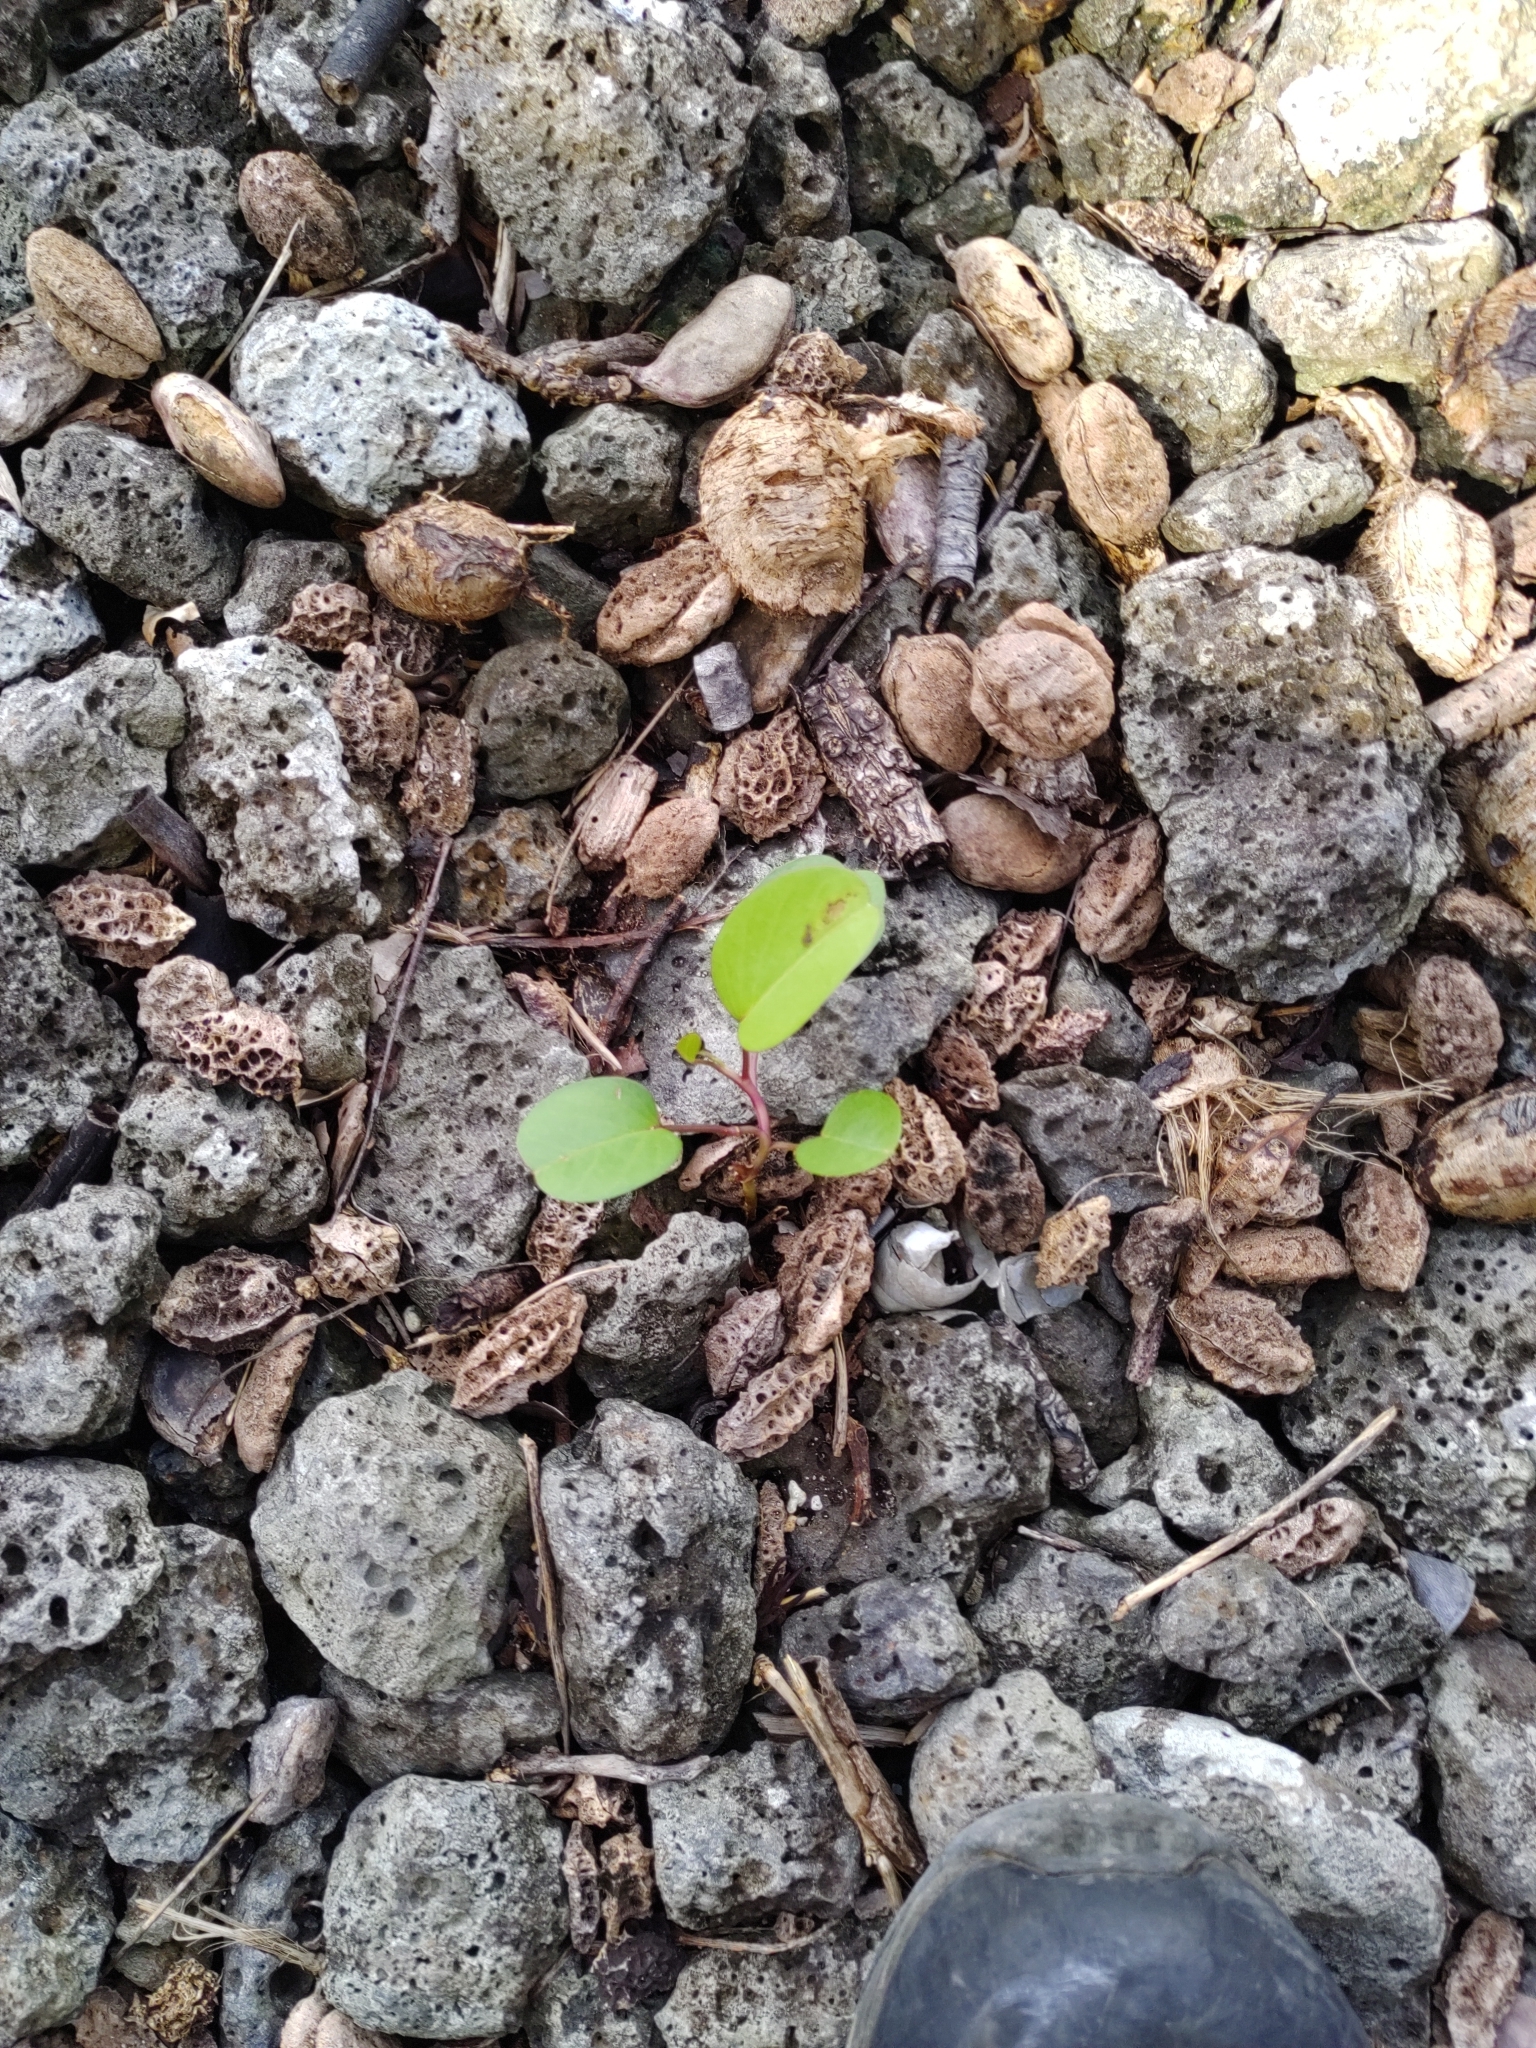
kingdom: Plantae
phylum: Tracheophyta
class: Magnoliopsida
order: Solanales
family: Convolvulaceae
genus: Ipomoea
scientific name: Ipomoea pes-caprae
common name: Beach morning glory
